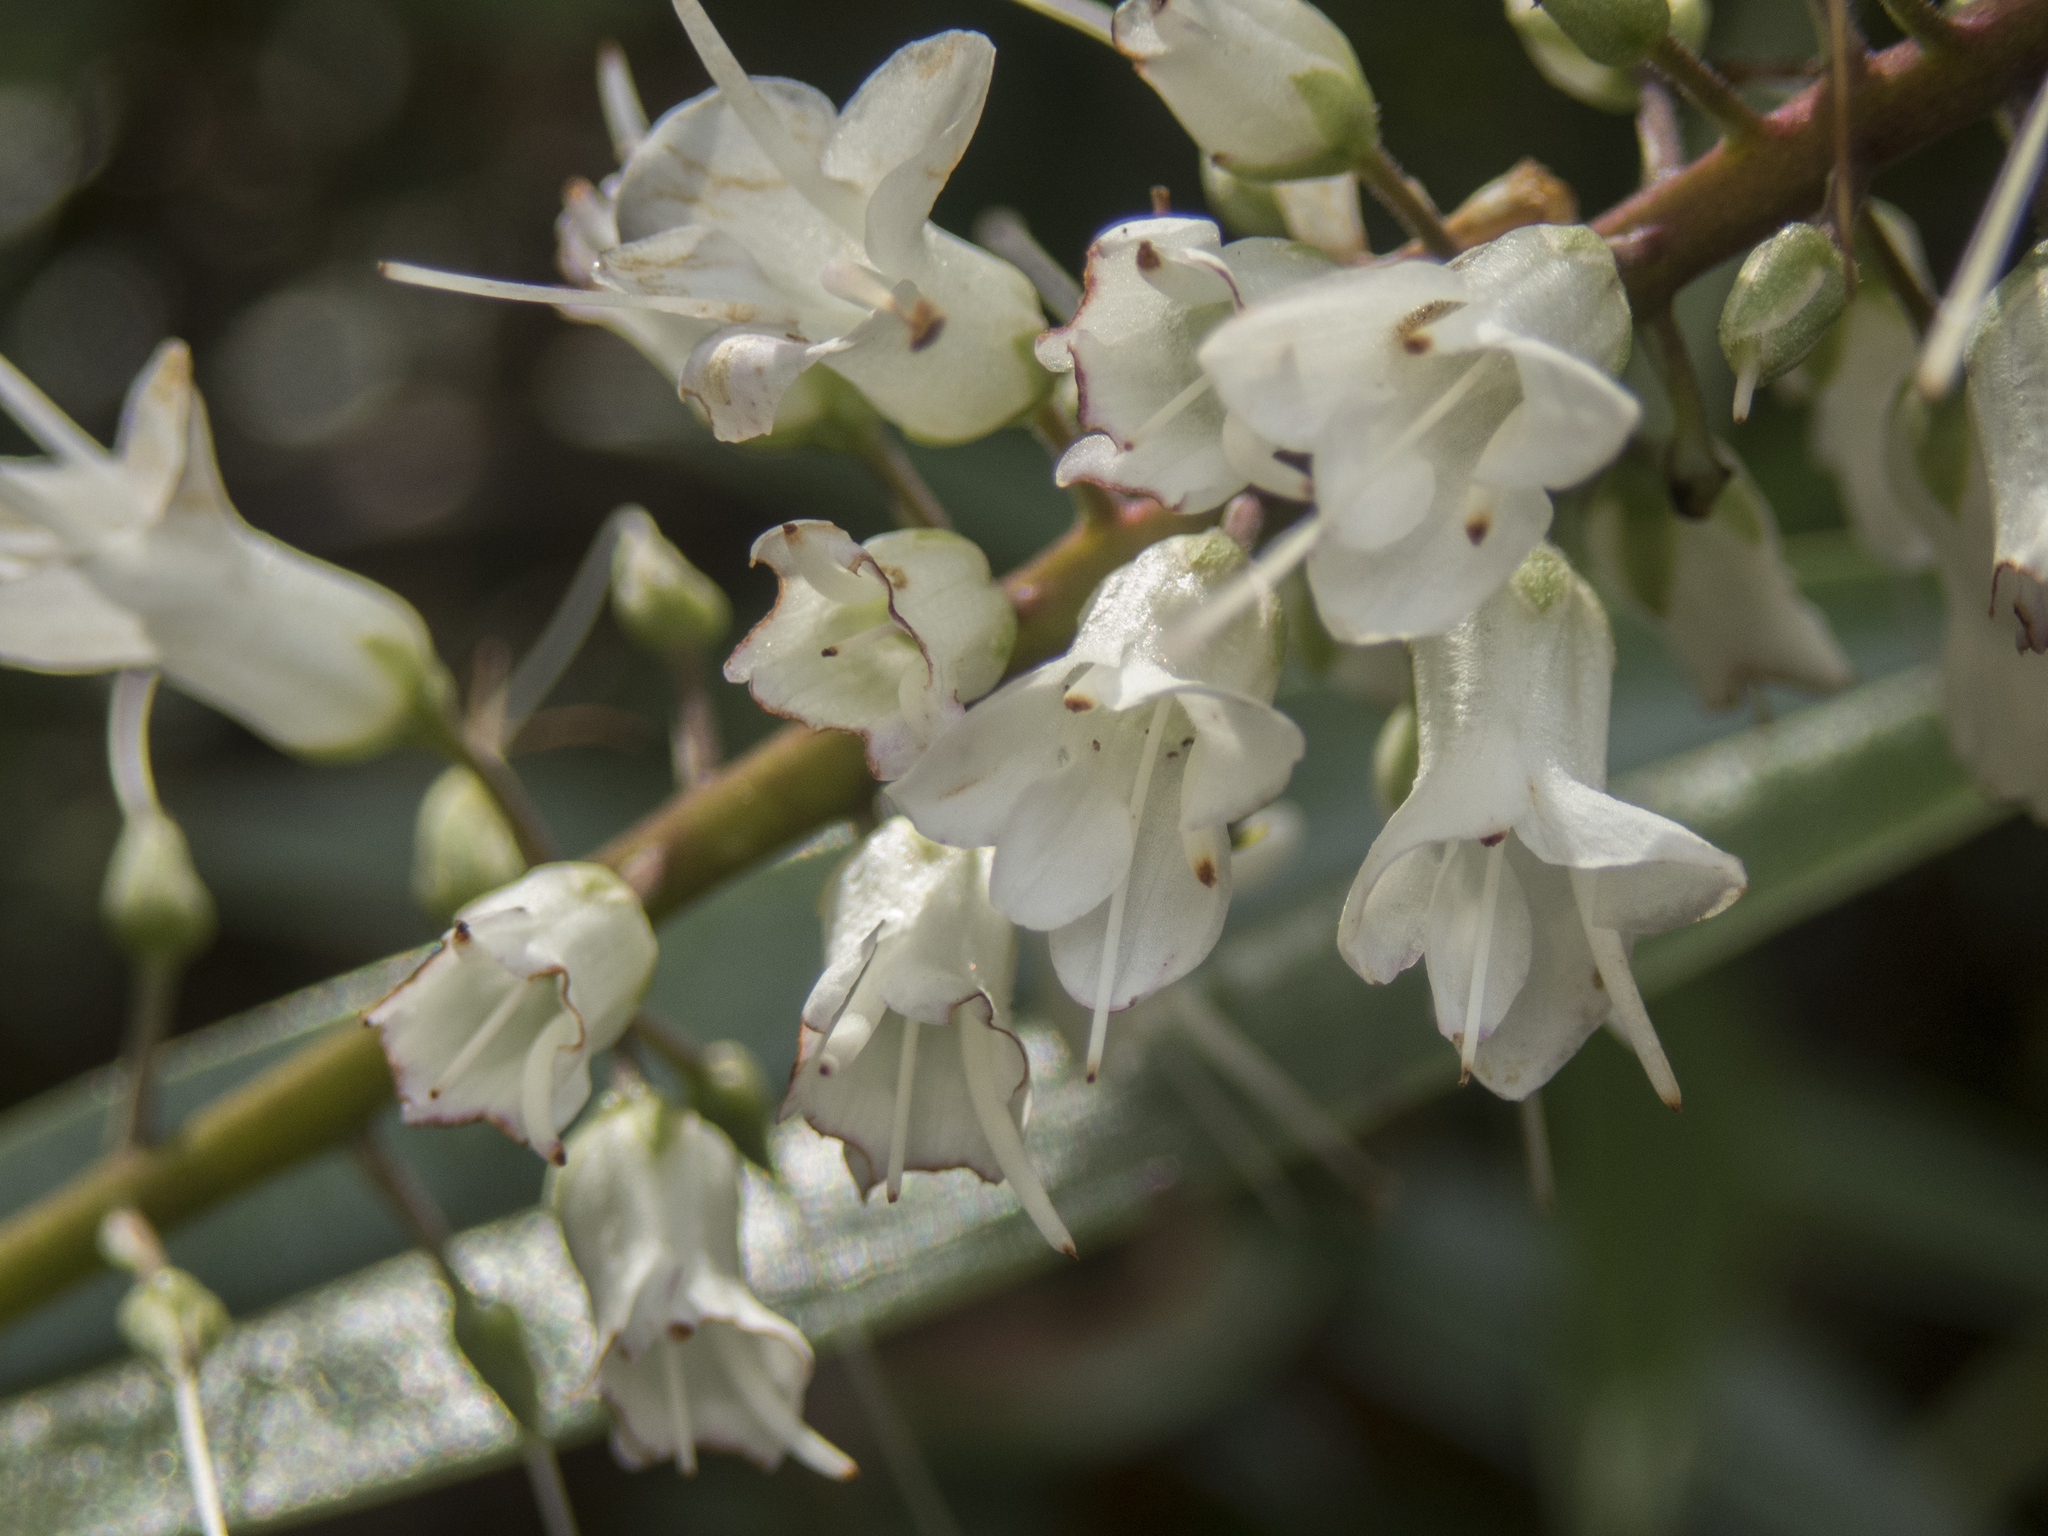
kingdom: Plantae
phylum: Tracheophyta
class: Magnoliopsida
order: Lamiales
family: Plantaginaceae
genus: Veronica
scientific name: Veronica macrocarpa
